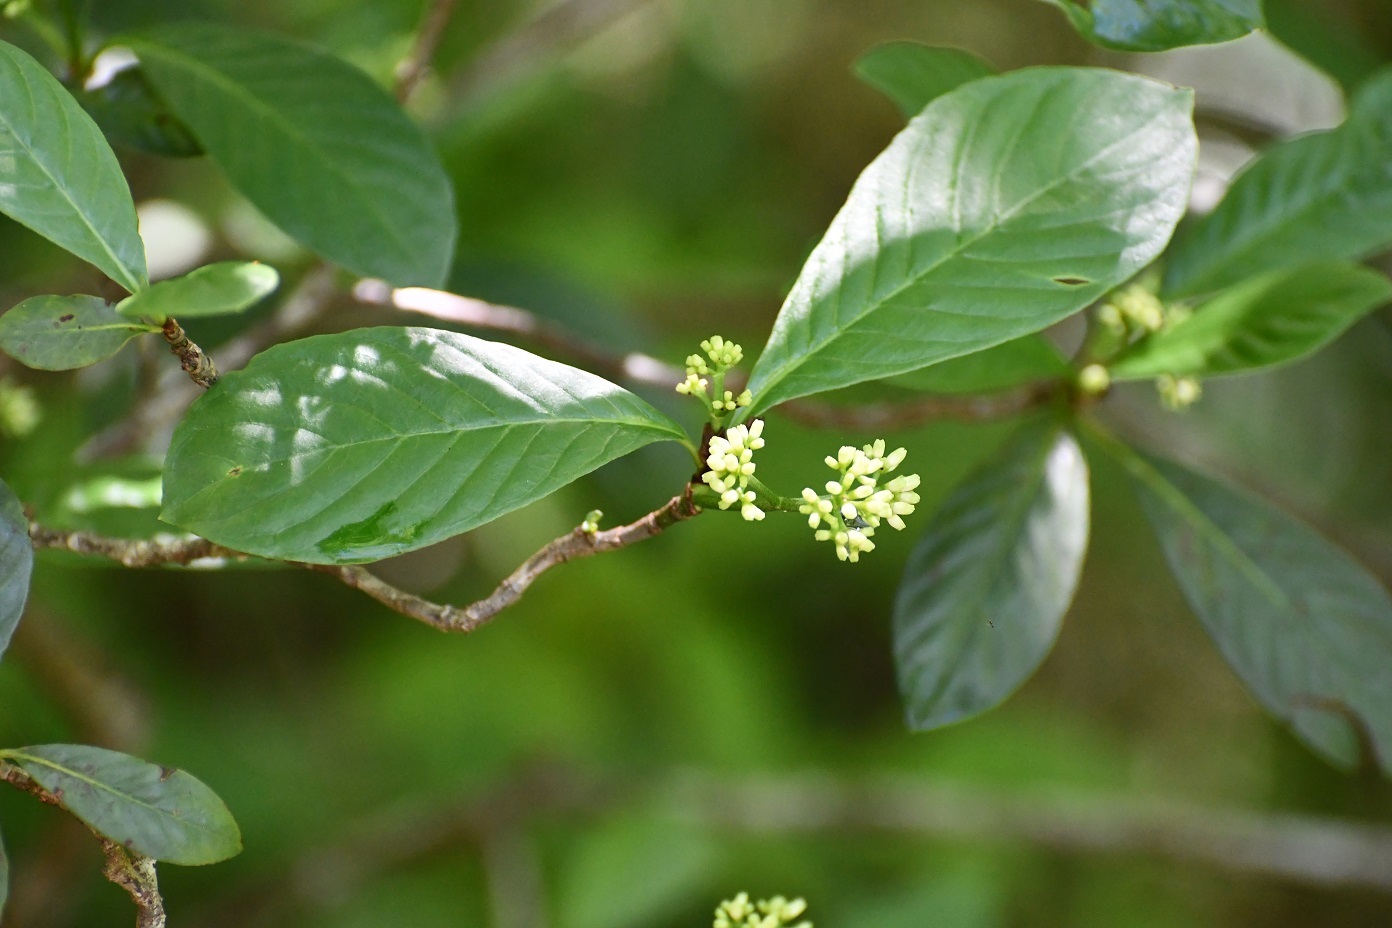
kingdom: Plantae
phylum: Tracheophyta
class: Magnoliopsida
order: Gentianales
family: Rubiaceae
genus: Psychotria
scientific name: Psychotria erythrocarpa
